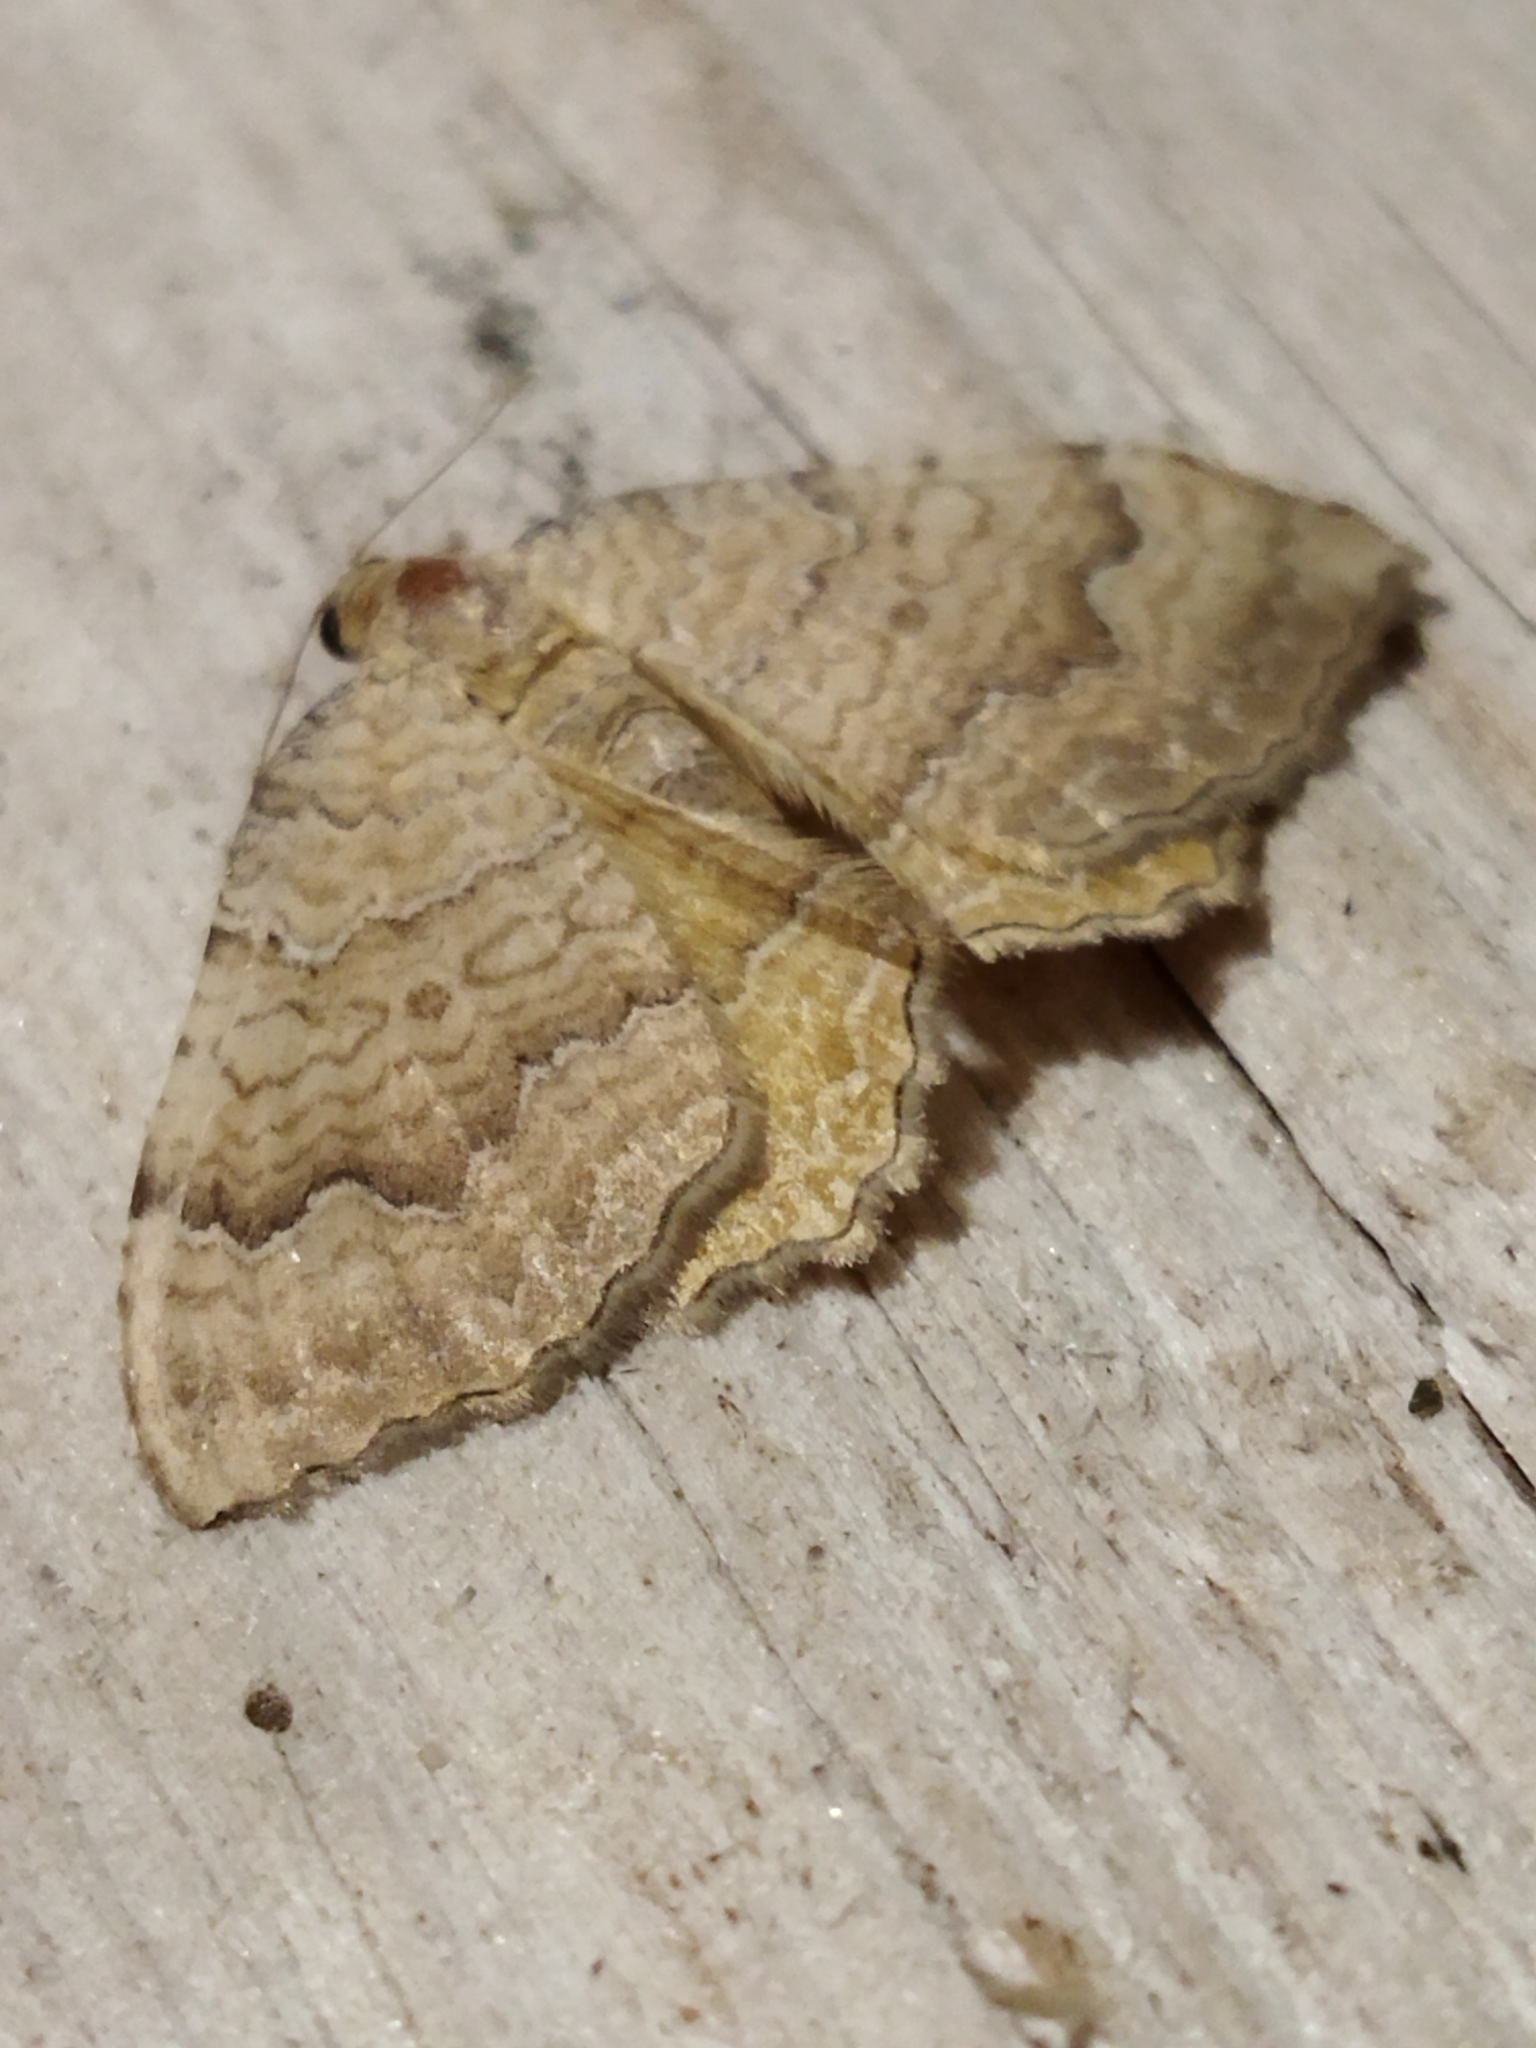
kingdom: Animalia
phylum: Arthropoda
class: Insecta
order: Lepidoptera
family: Geometridae
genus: Camptogramma
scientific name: Camptogramma bilineata
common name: Yellow shell
